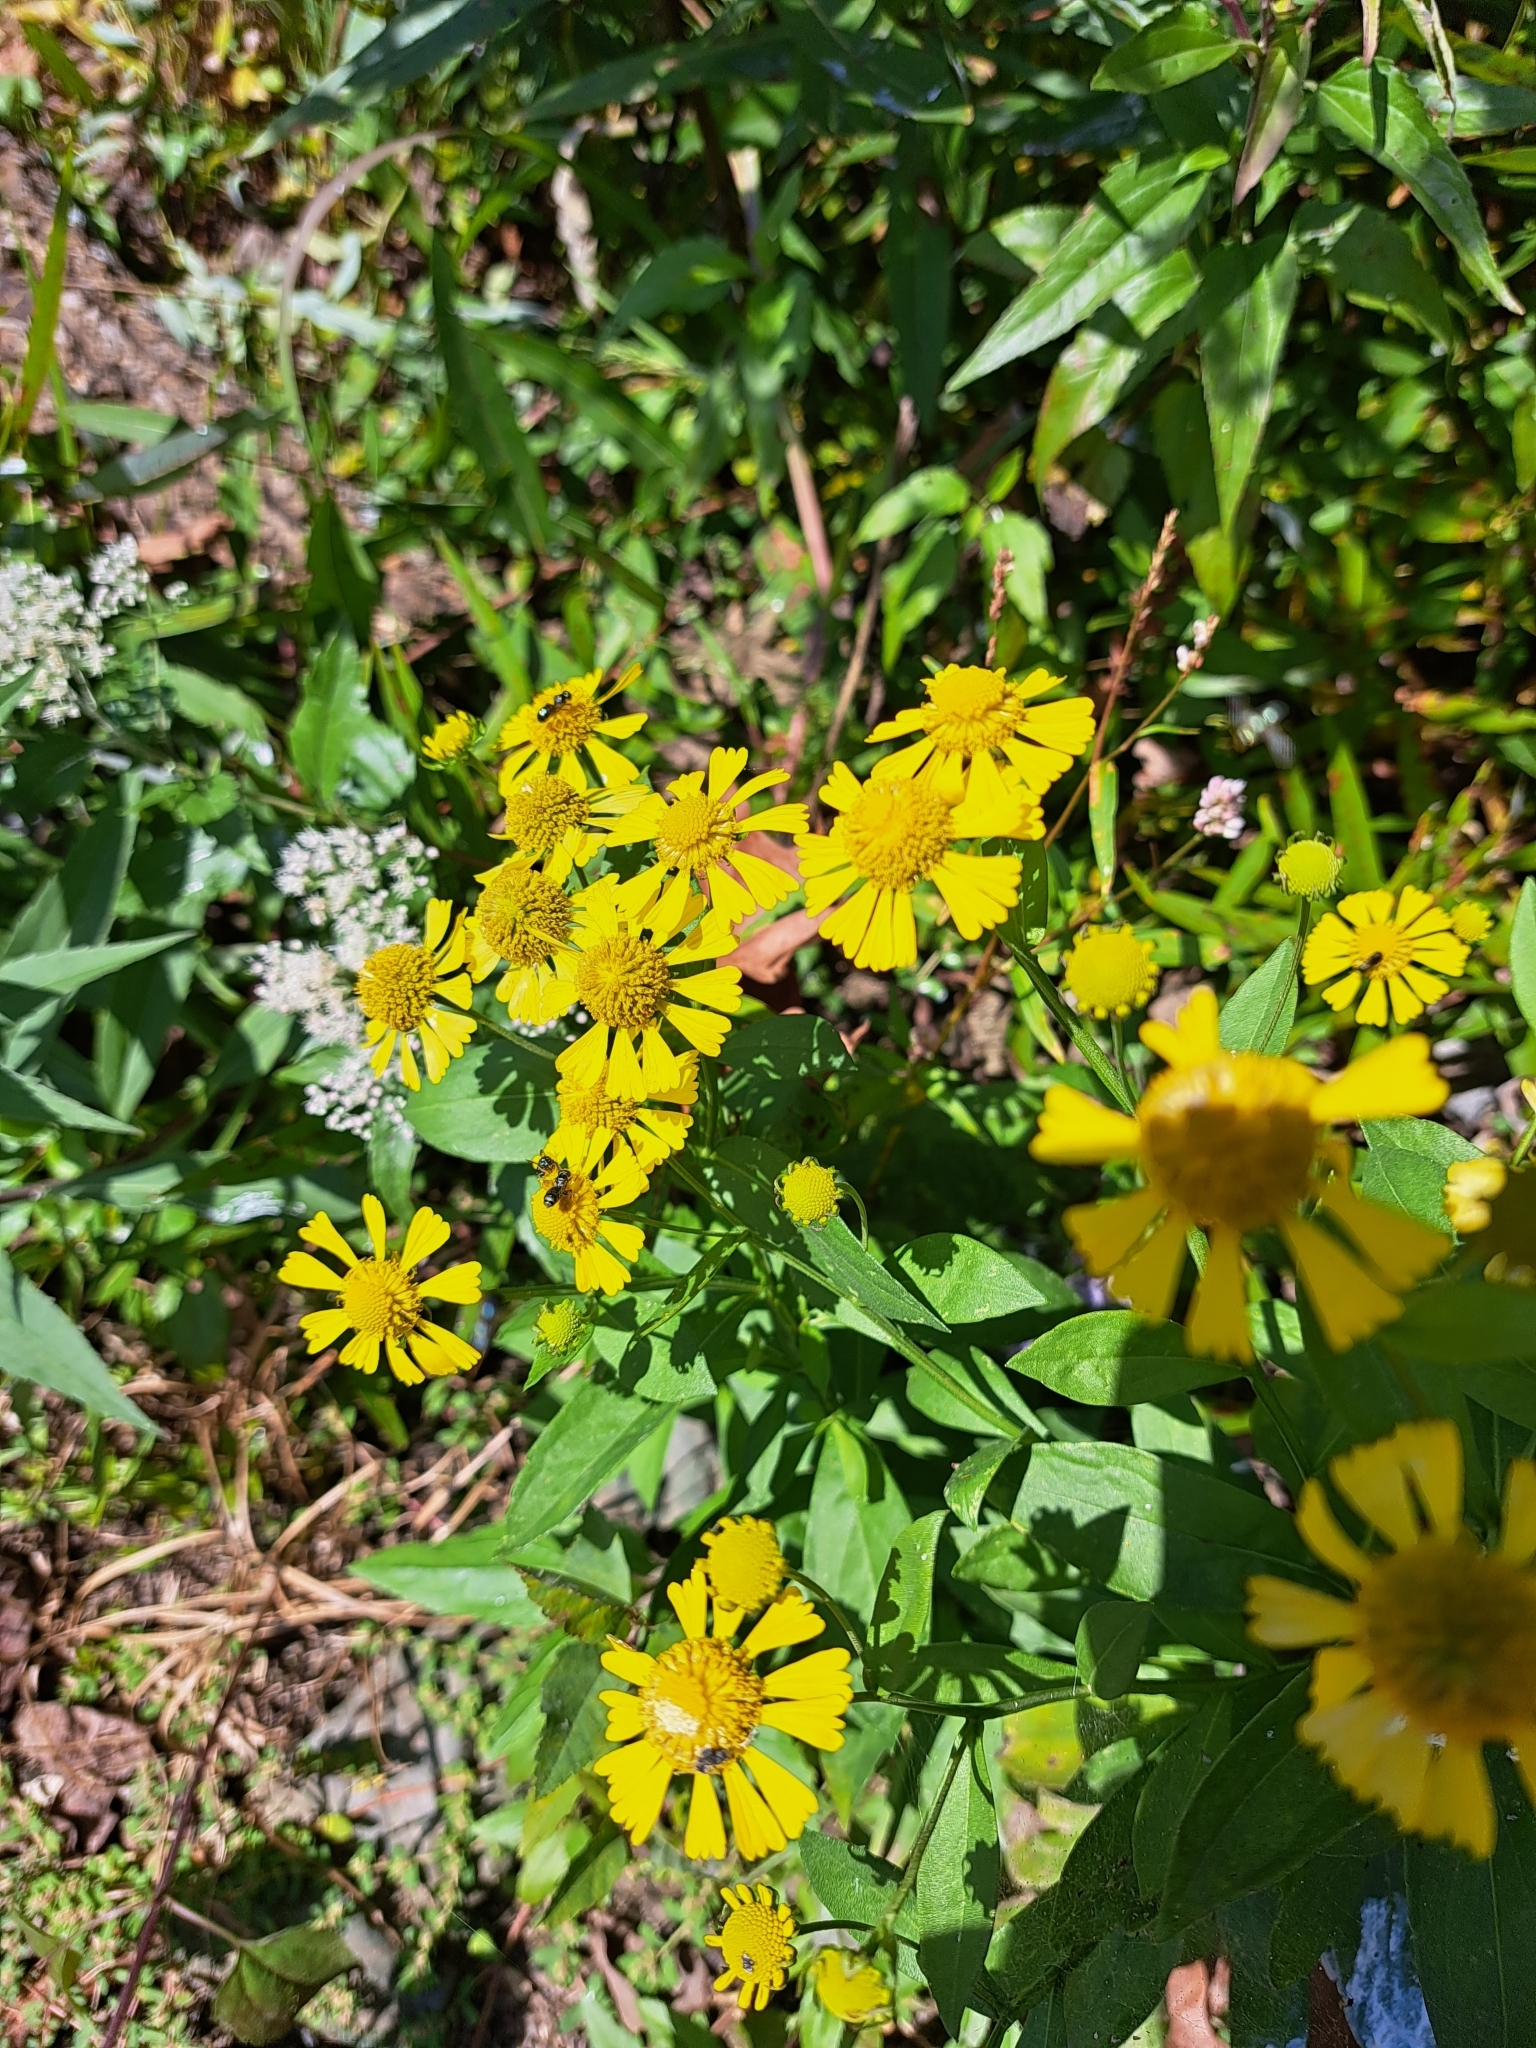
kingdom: Plantae
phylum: Tracheophyta
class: Magnoliopsida
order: Asterales
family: Asteraceae
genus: Helenium
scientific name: Helenium autumnale
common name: Sneezeweed
